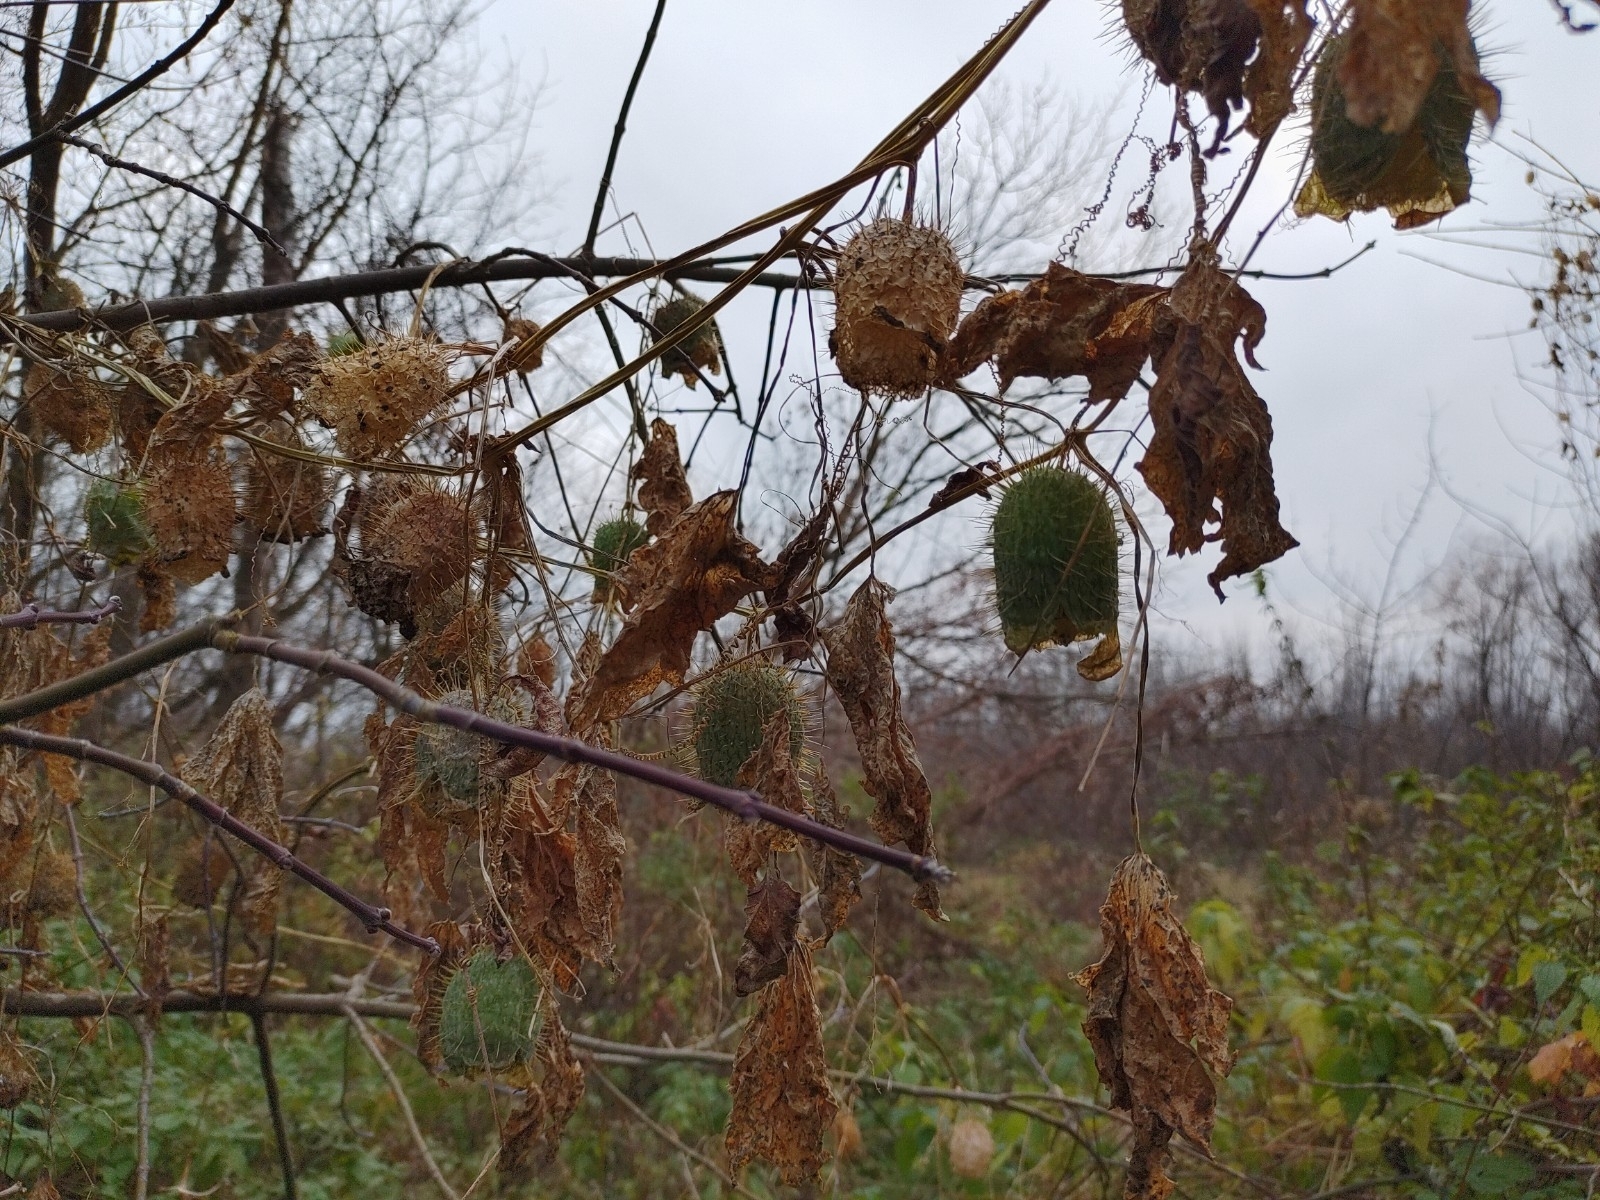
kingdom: Plantae
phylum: Tracheophyta
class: Magnoliopsida
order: Cucurbitales
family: Cucurbitaceae
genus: Echinocystis
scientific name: Echinocystis lobata
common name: Wild cucumber
